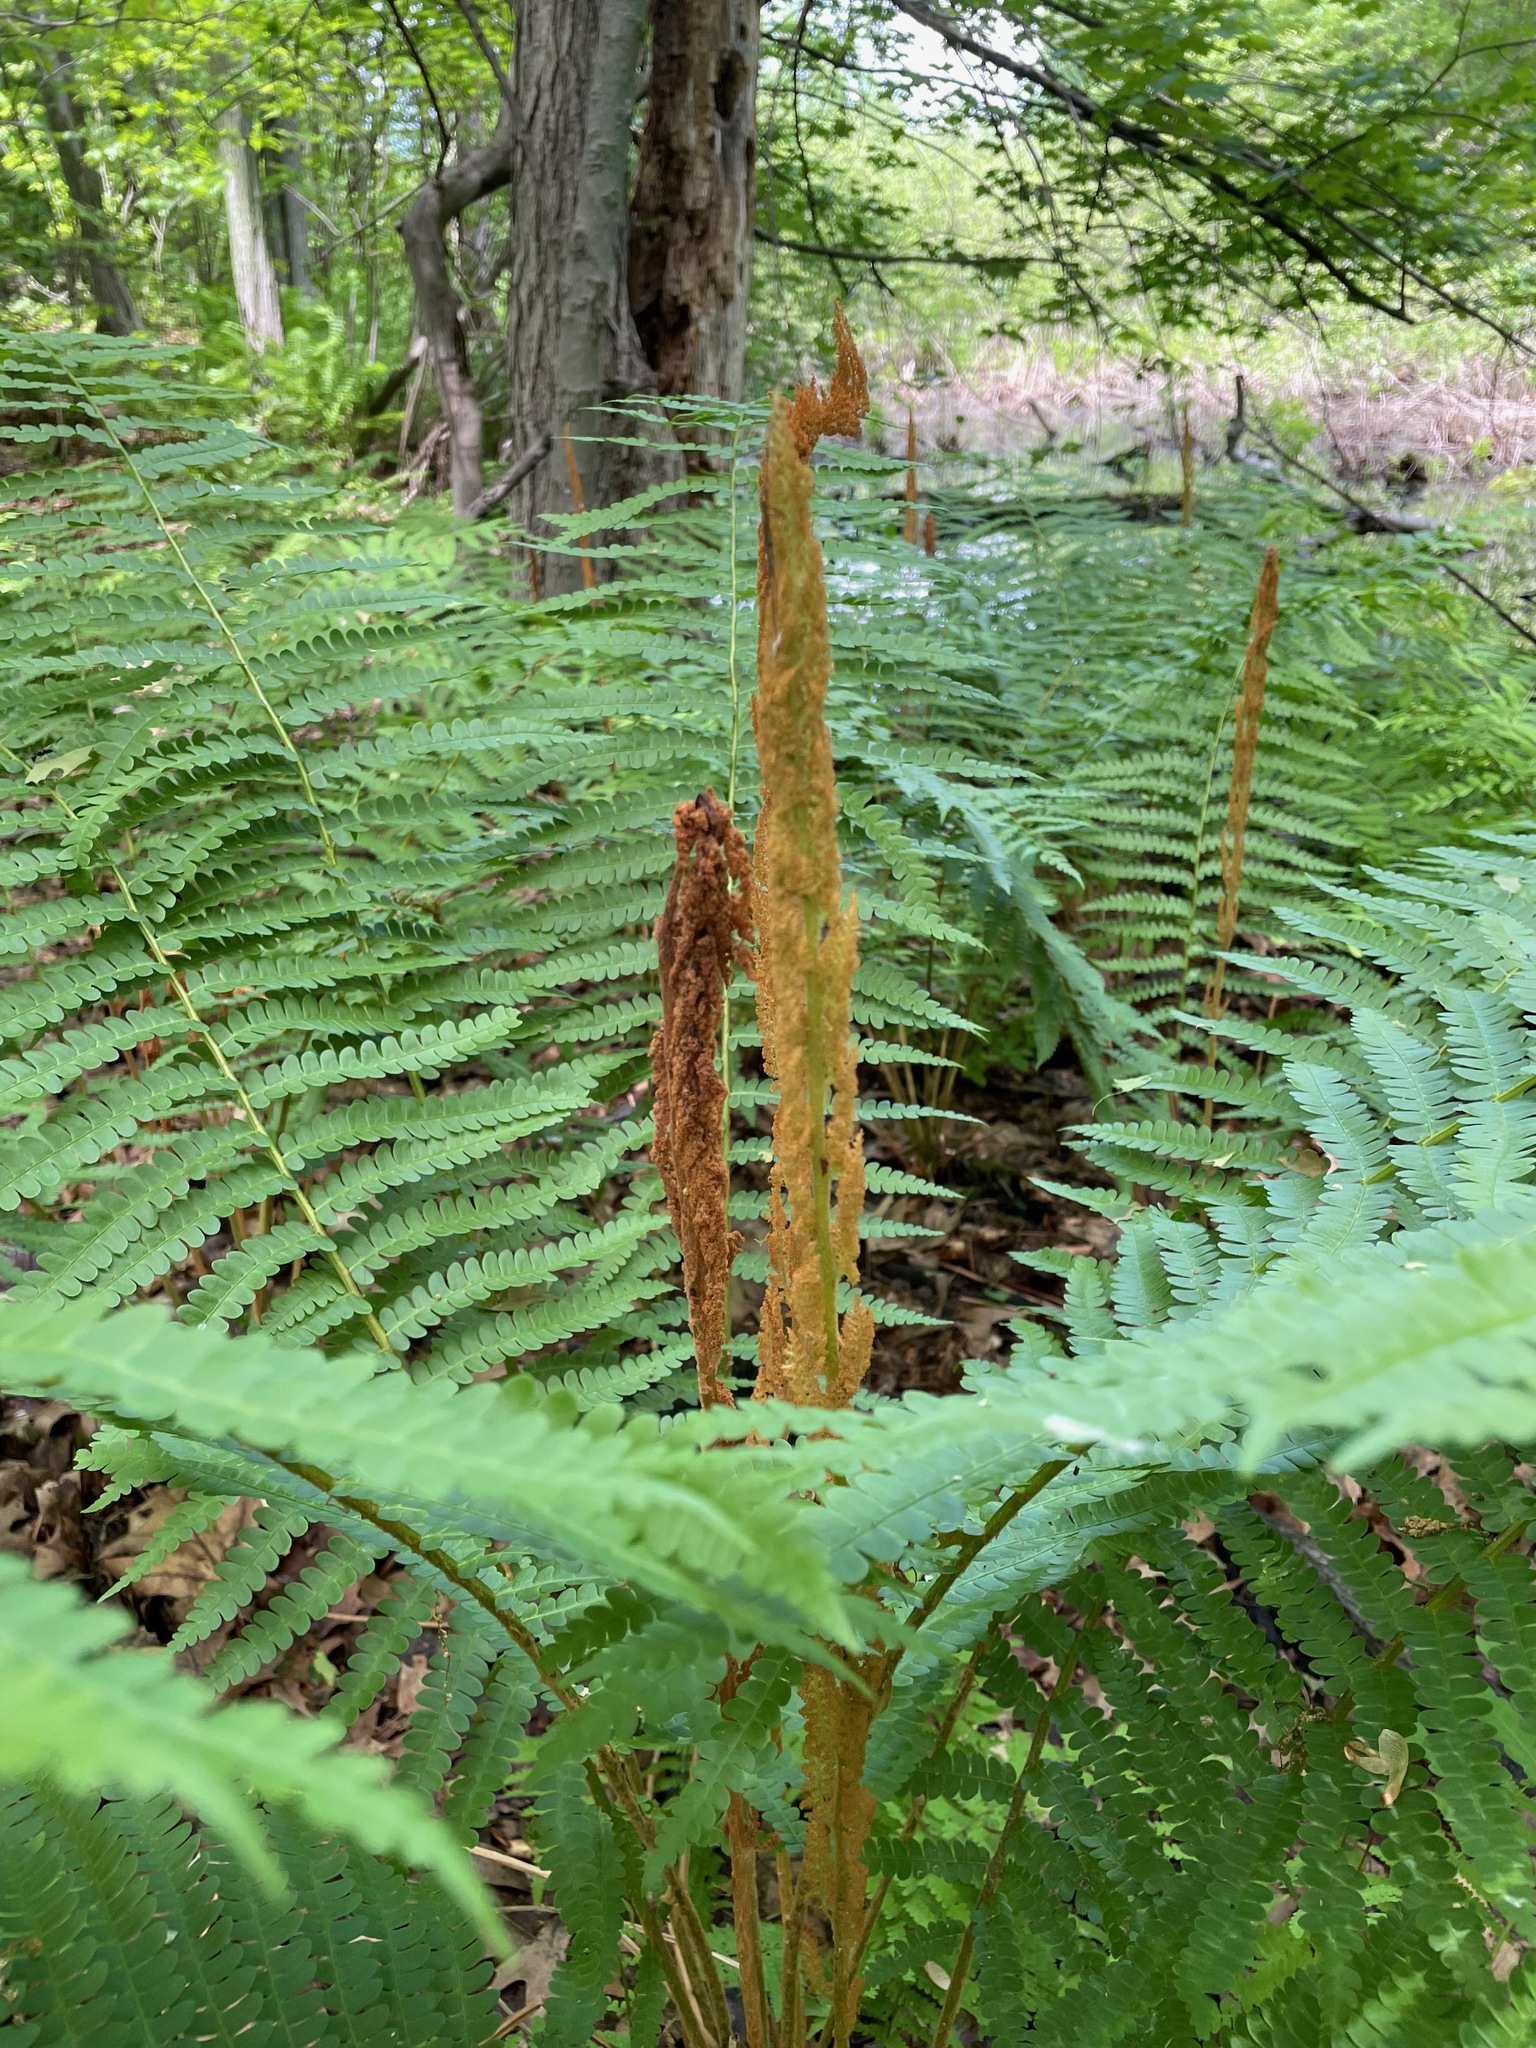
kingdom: Plantae
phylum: Tracheophyta
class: Polypodiopsida
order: Osmundales
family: Osmundaceae
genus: Osmundastrum
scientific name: Osmundastrum cinnamomeum
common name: Cinnamon fern
